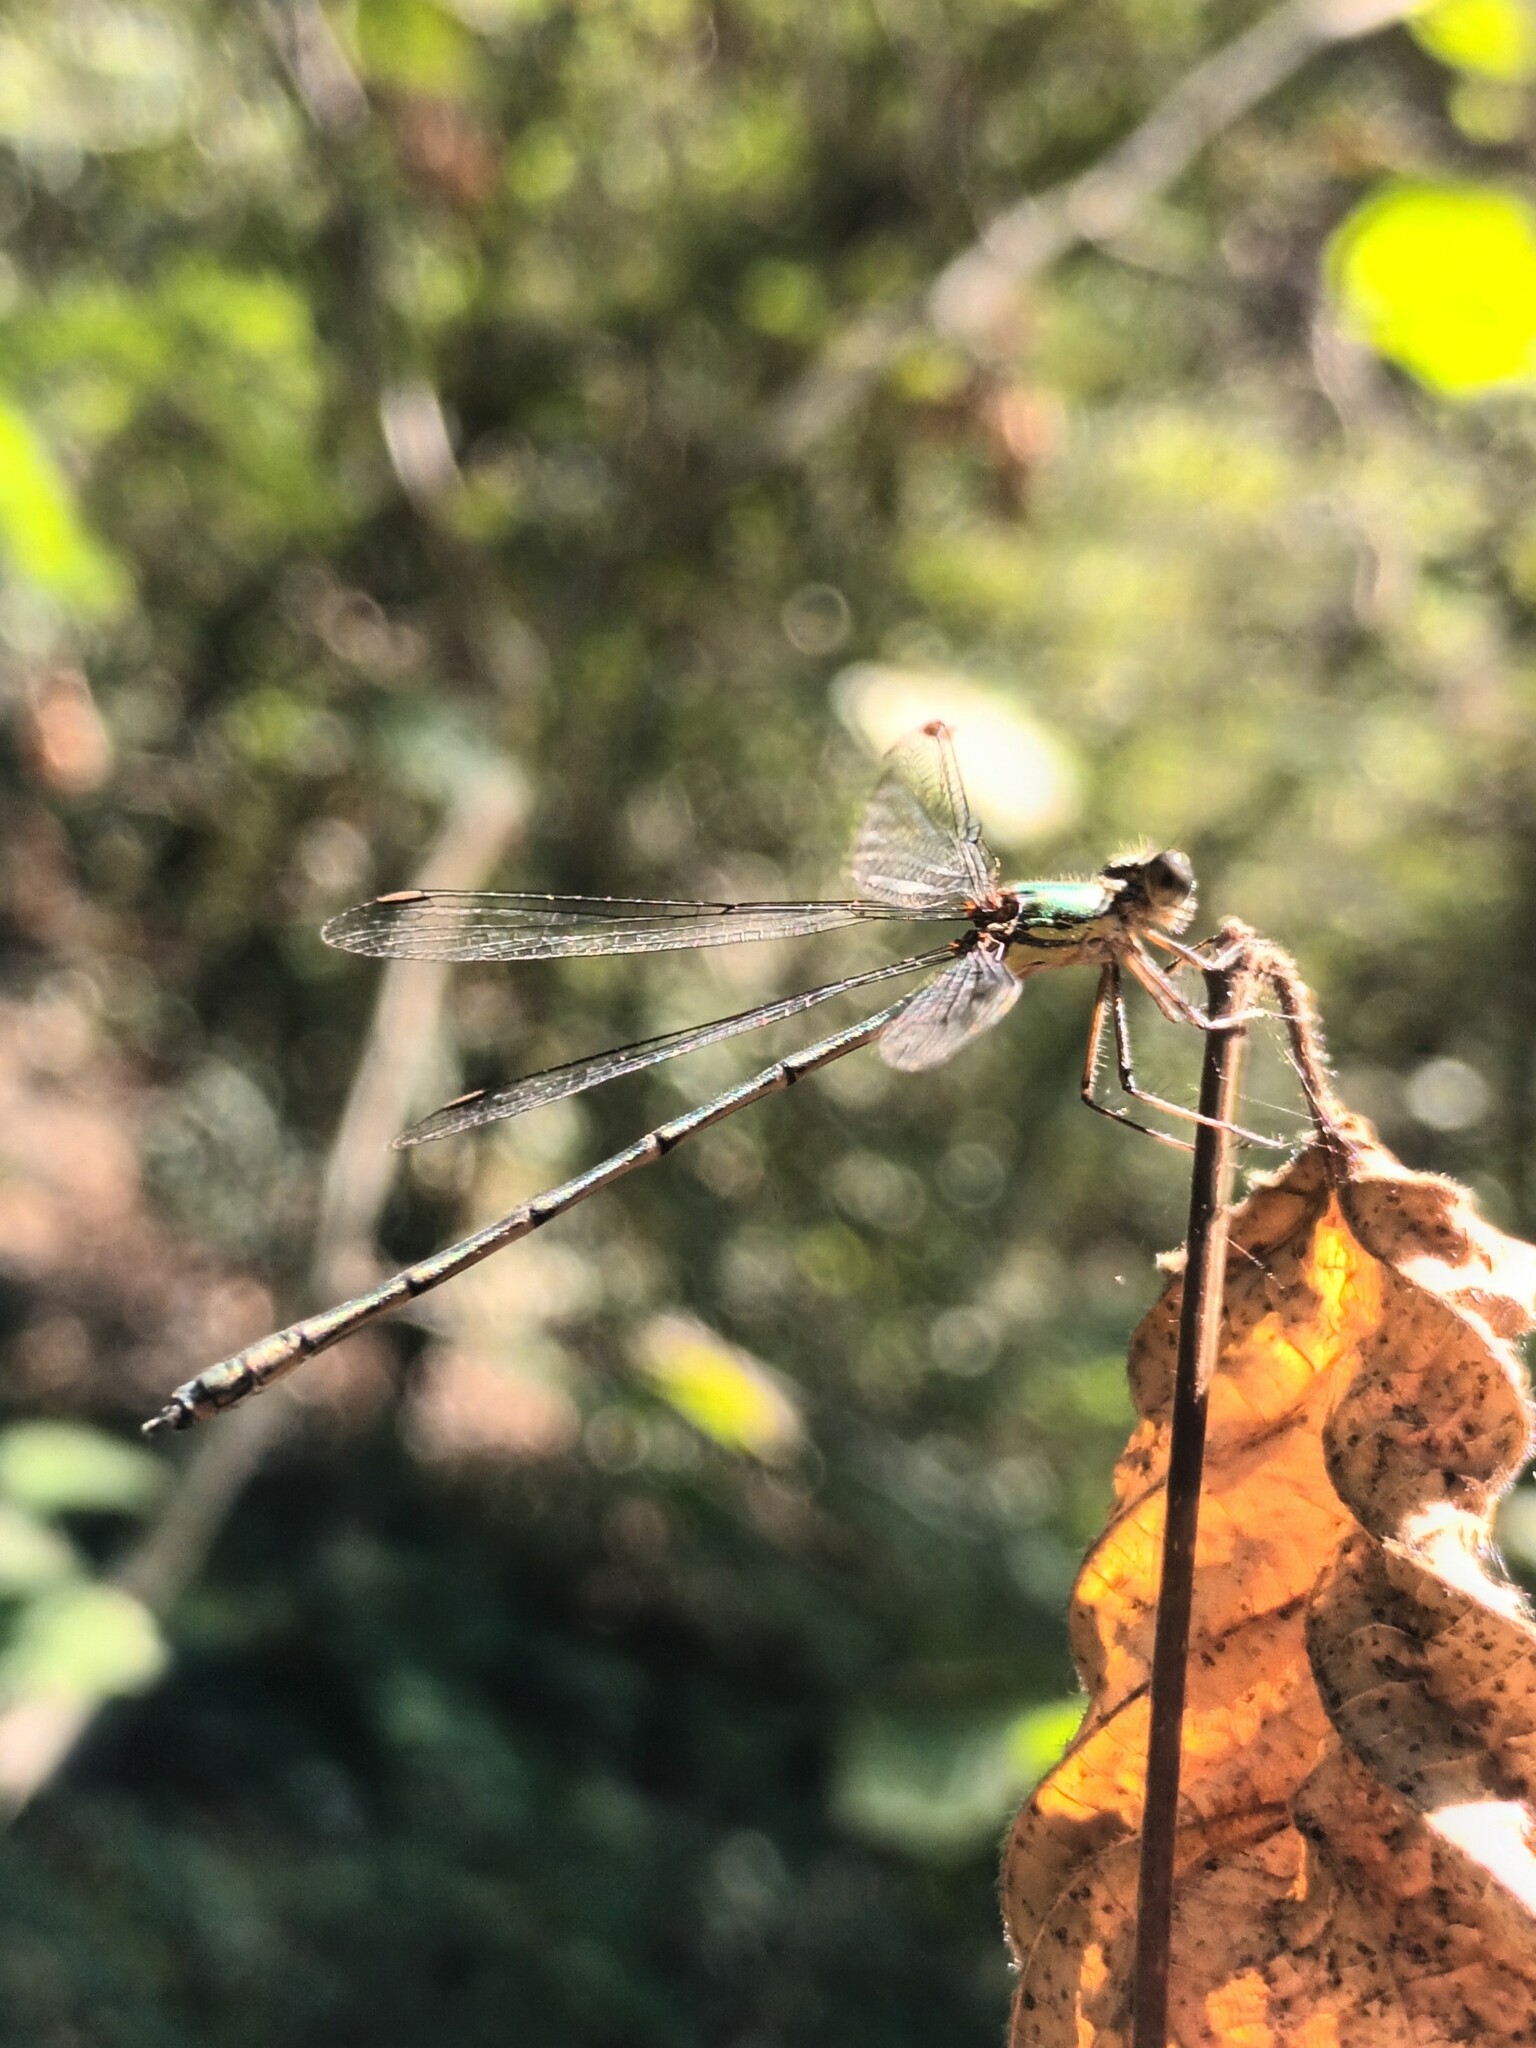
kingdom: Animalia
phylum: Arthropoda
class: Insecta
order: Odonata
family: Lestidae
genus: Chalcolestes
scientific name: Chalcolestes viridis
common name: Green emerald damselfly
